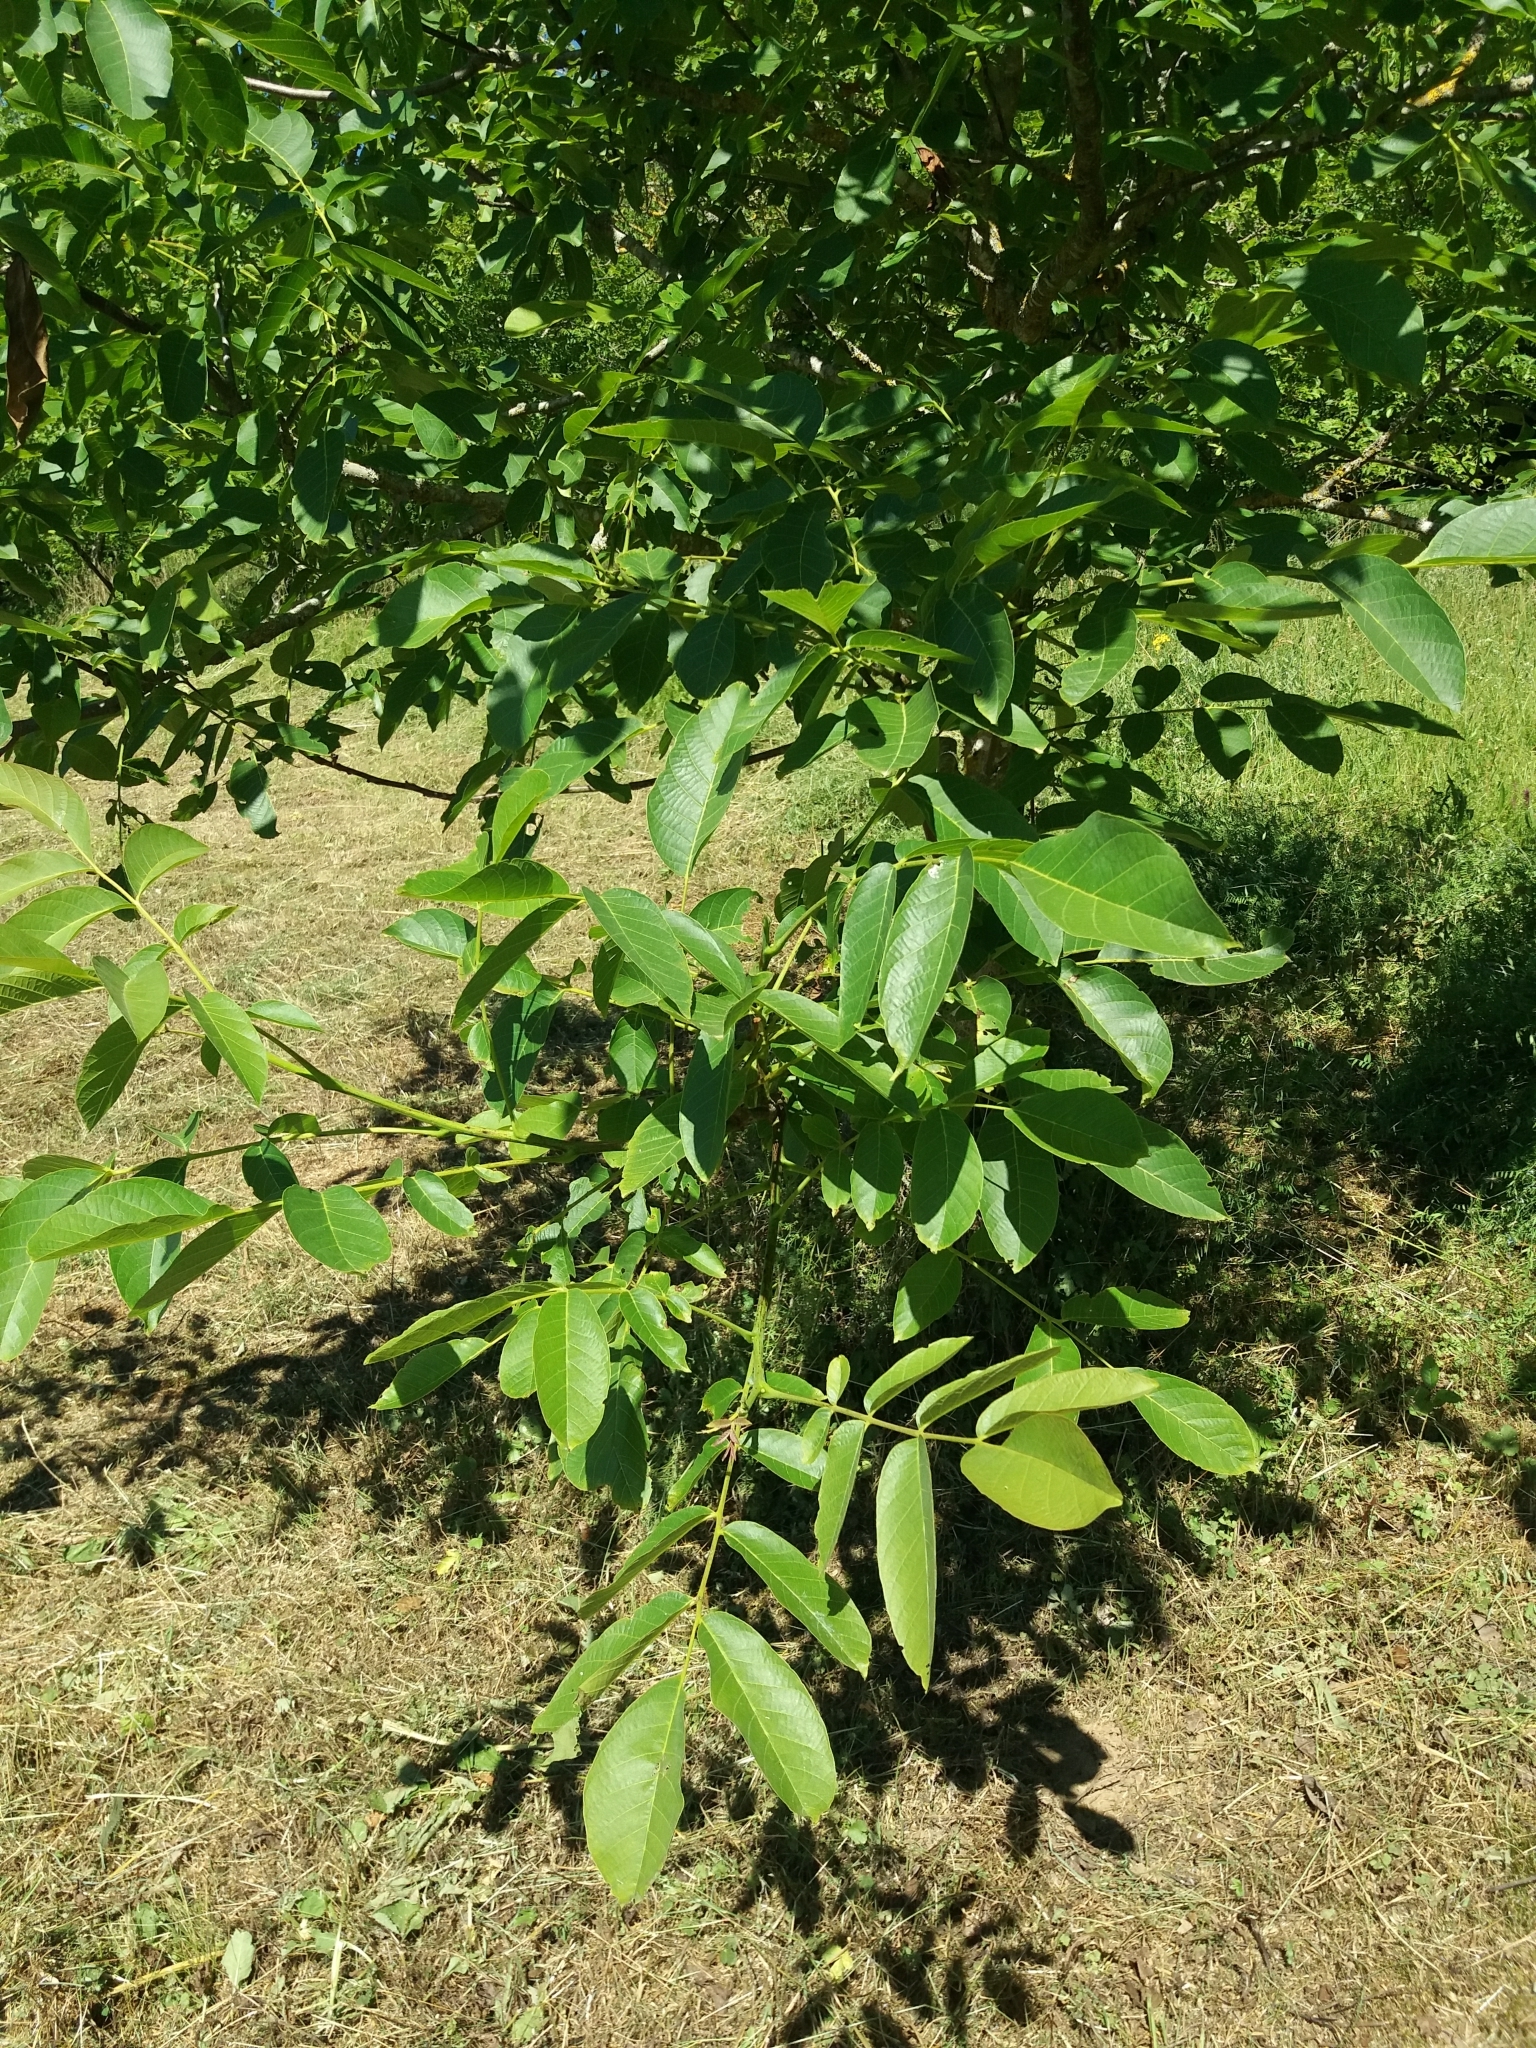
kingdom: Plantae
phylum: Tracheophyta
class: Magnoliopsida
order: Fagales
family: Juglandaceae
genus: Juglans
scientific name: Juglans regia
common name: Walnut
